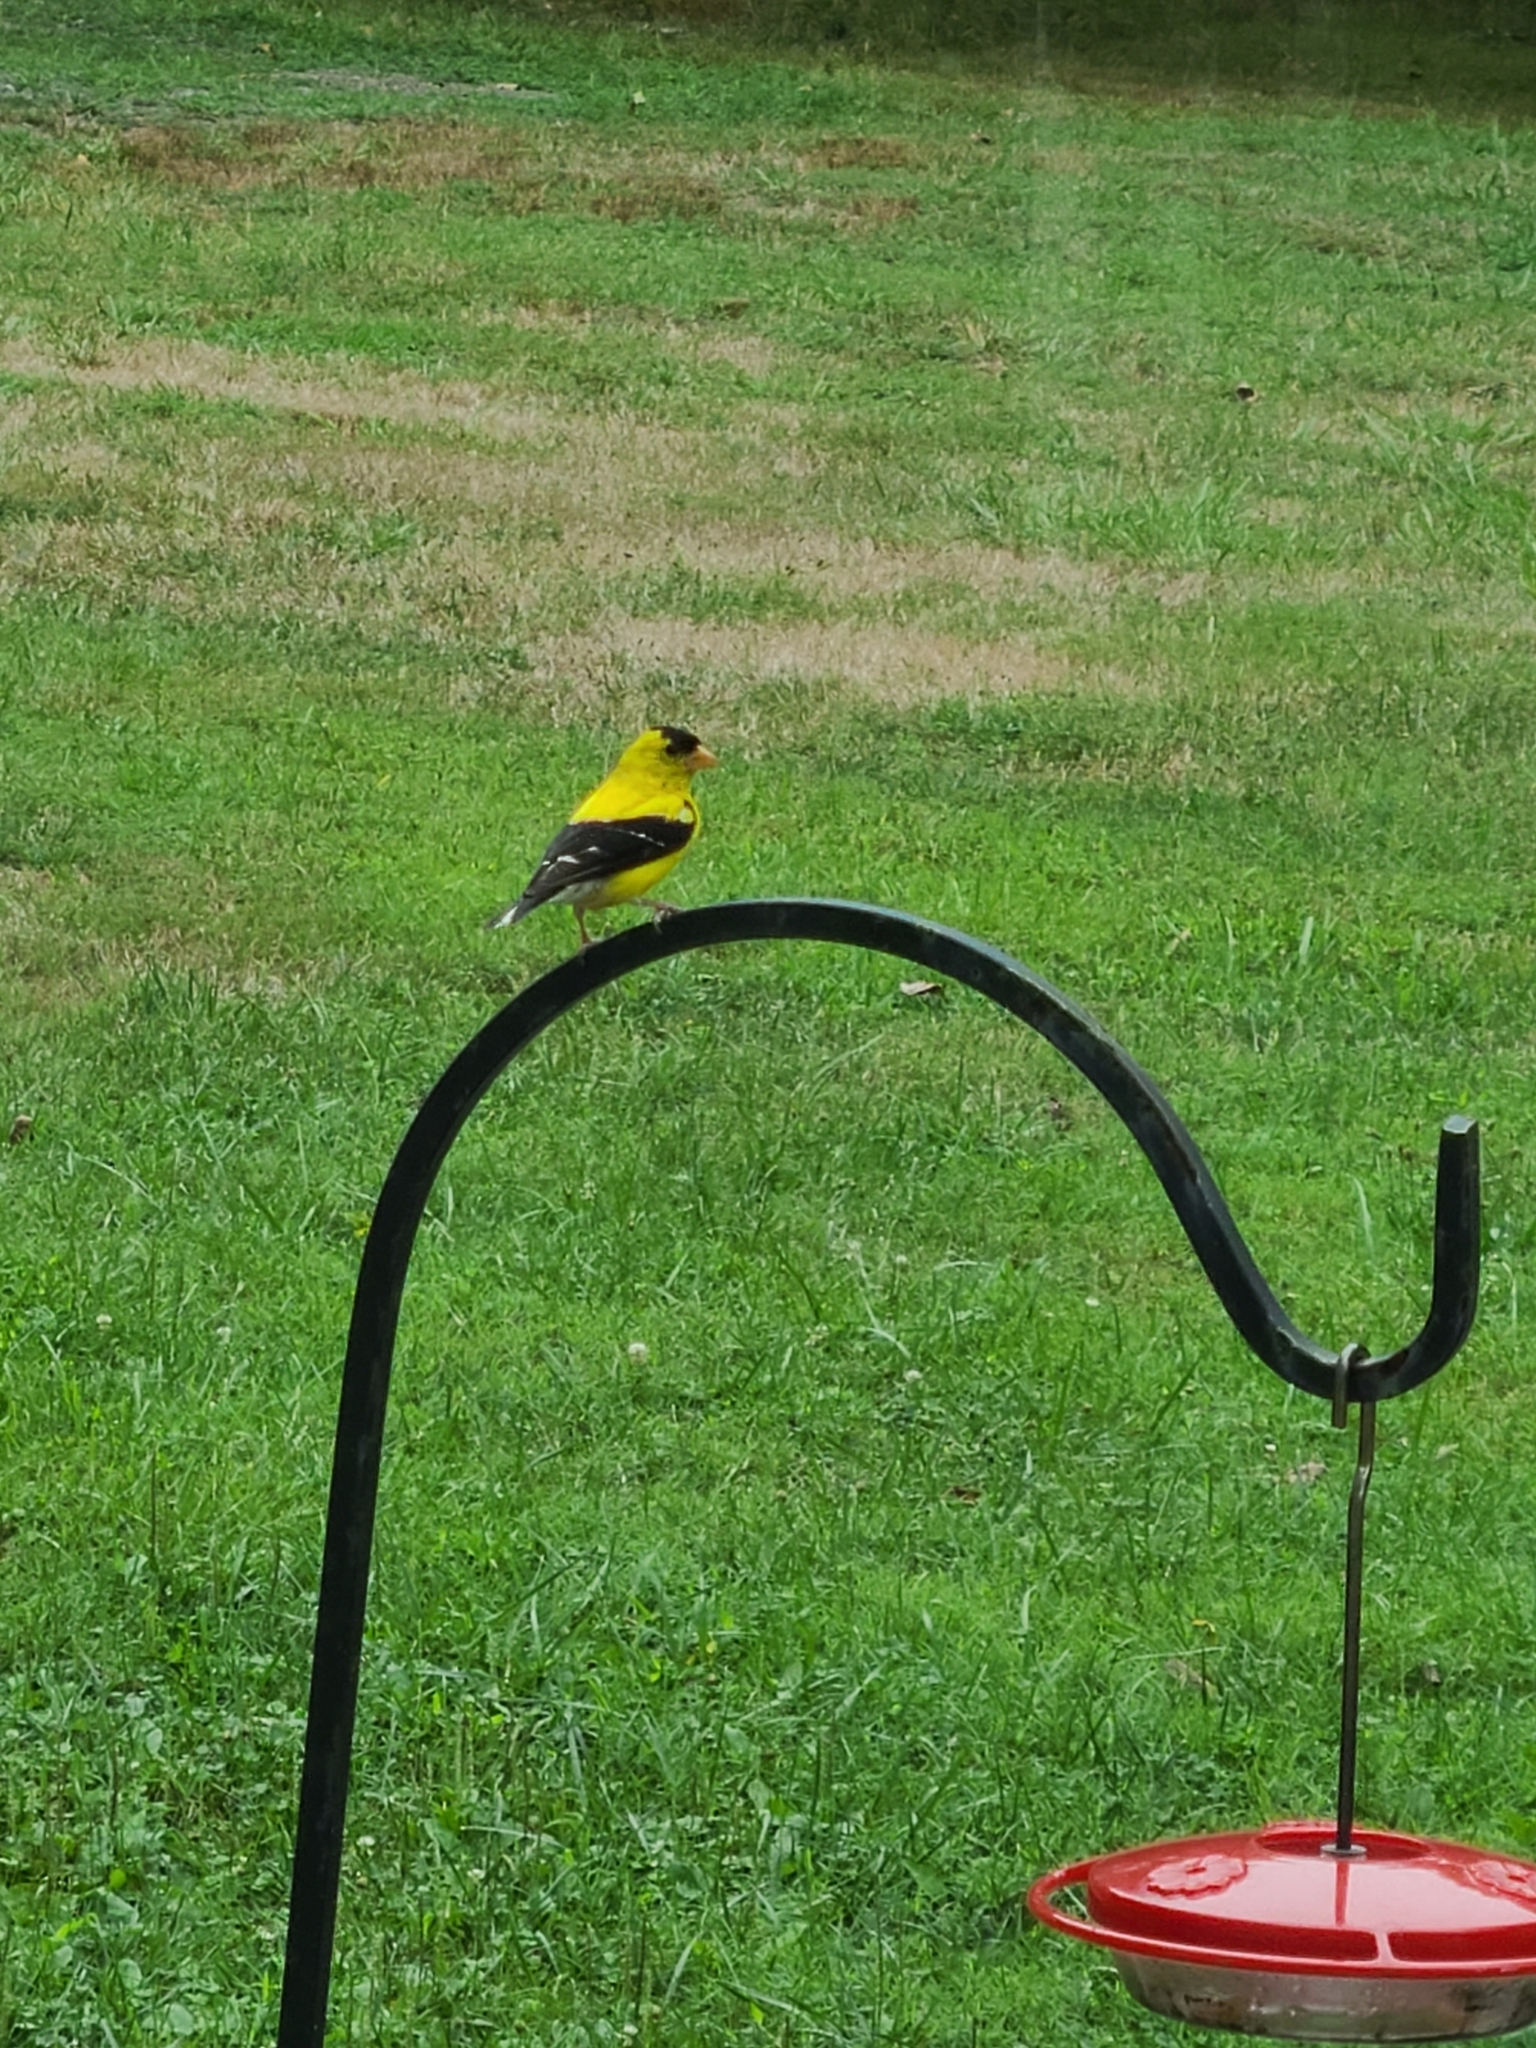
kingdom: Animalia
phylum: Chordata
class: Aves
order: Passeriformes
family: Fringillidae
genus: Spinus
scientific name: Spinus tristis
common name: American goldfinch
